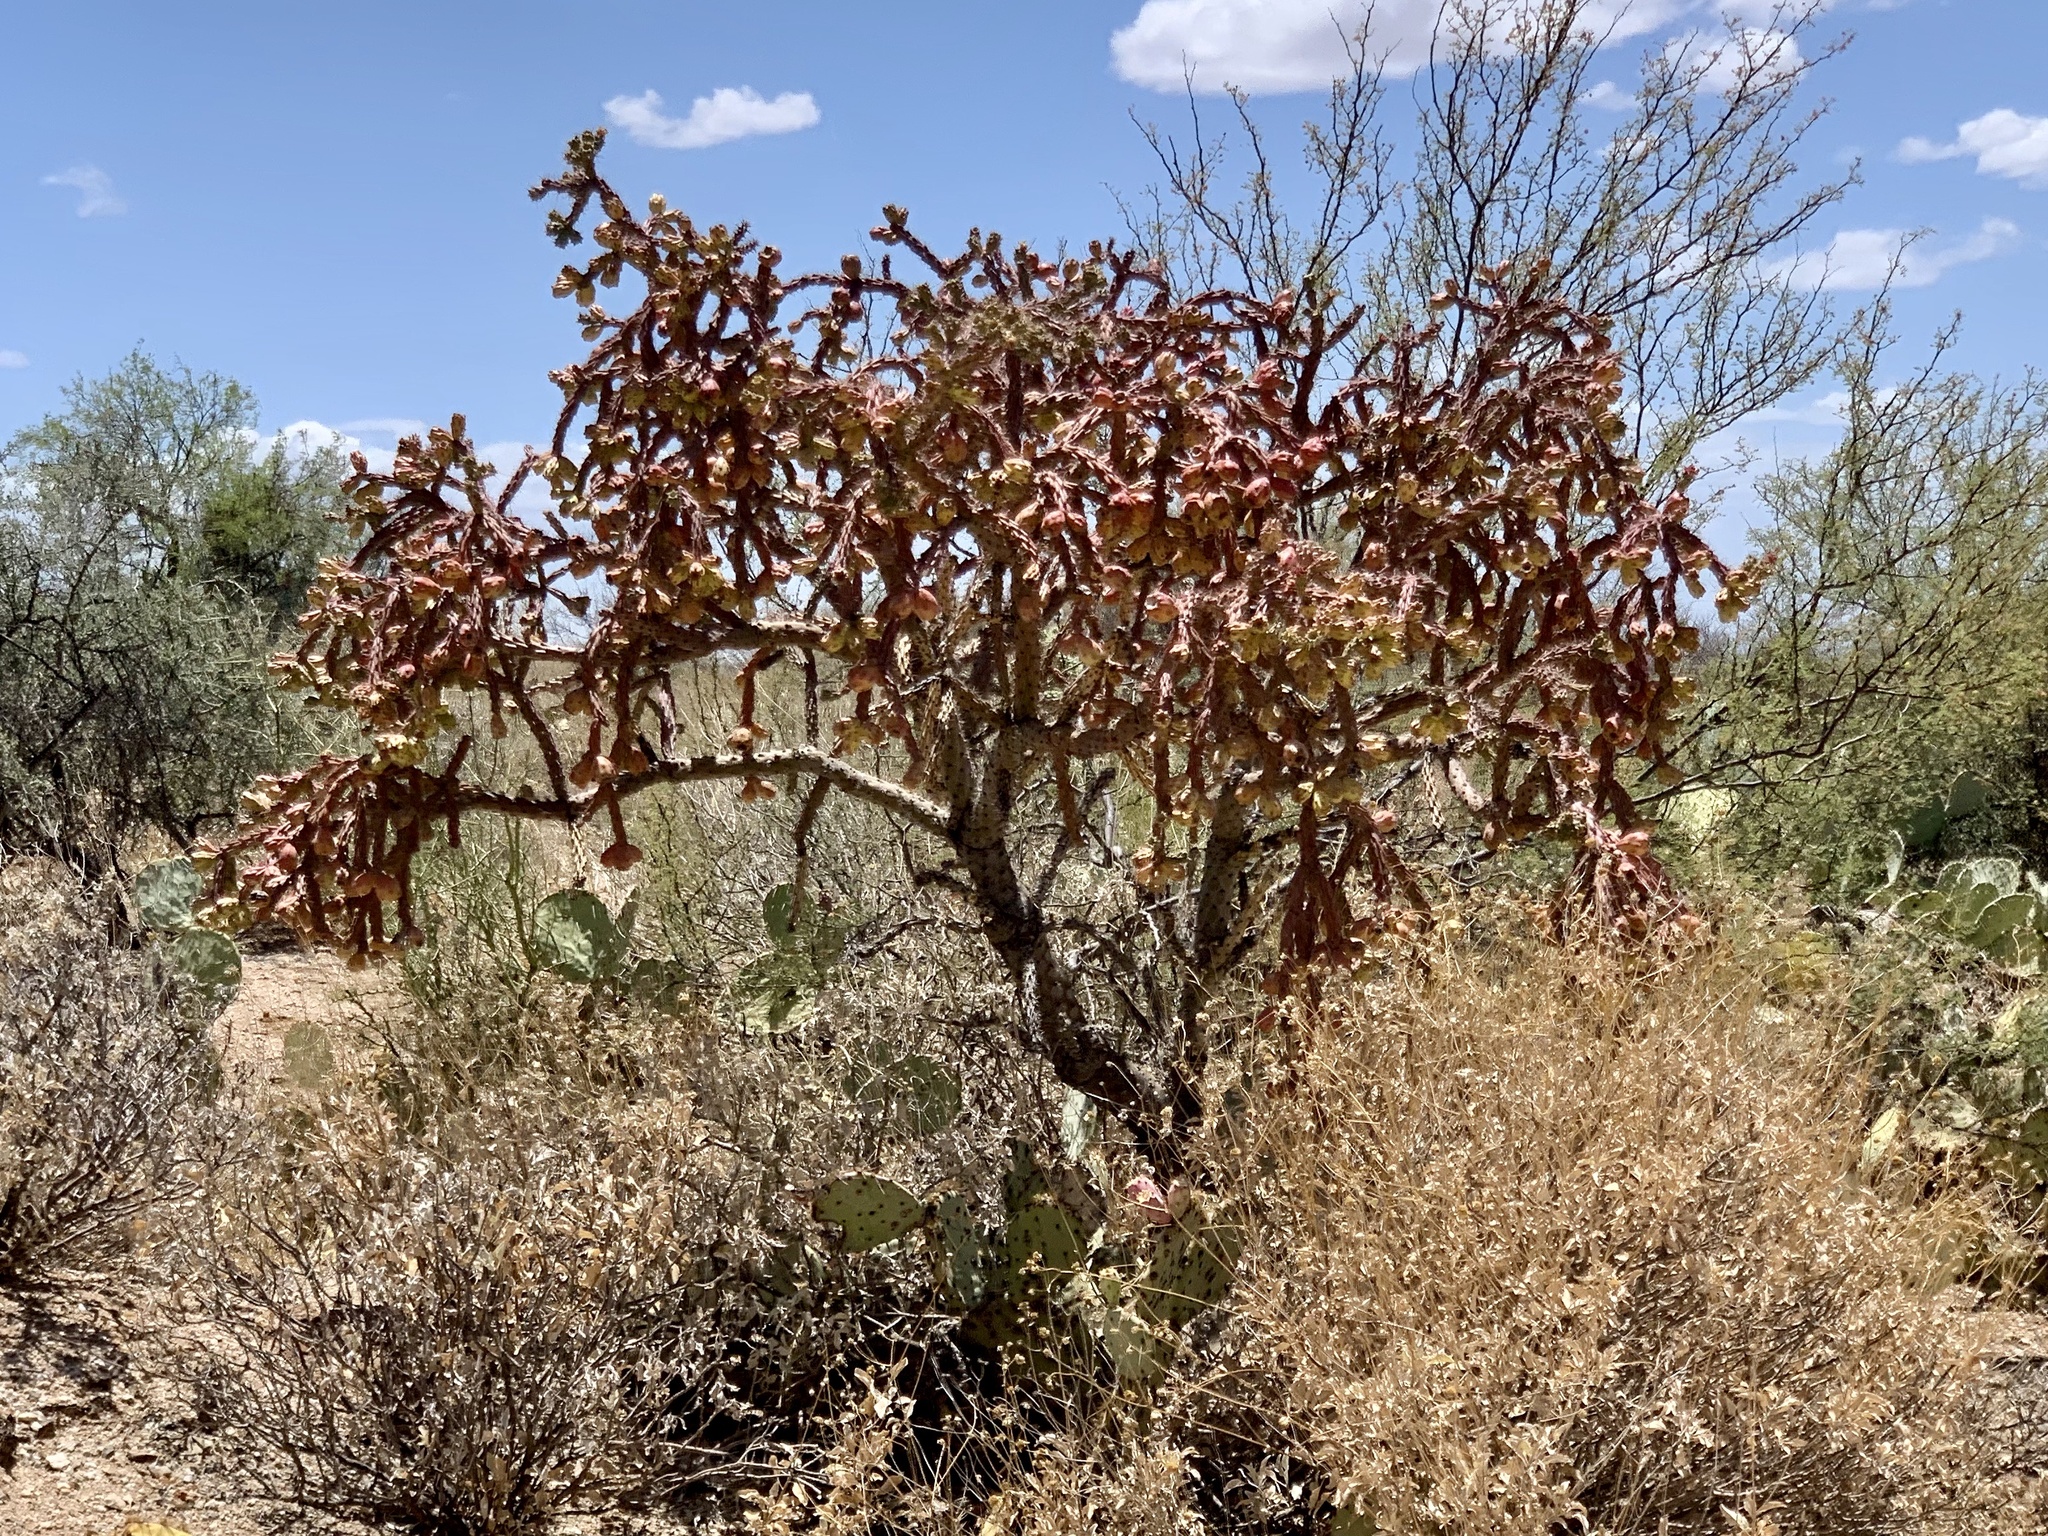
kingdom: Plantae
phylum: Tracheophyta
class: Magnoliopsida
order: Caryophyllales
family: Cactaceae
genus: Cylindropuntia
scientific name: Cylindropuntia thurberi
